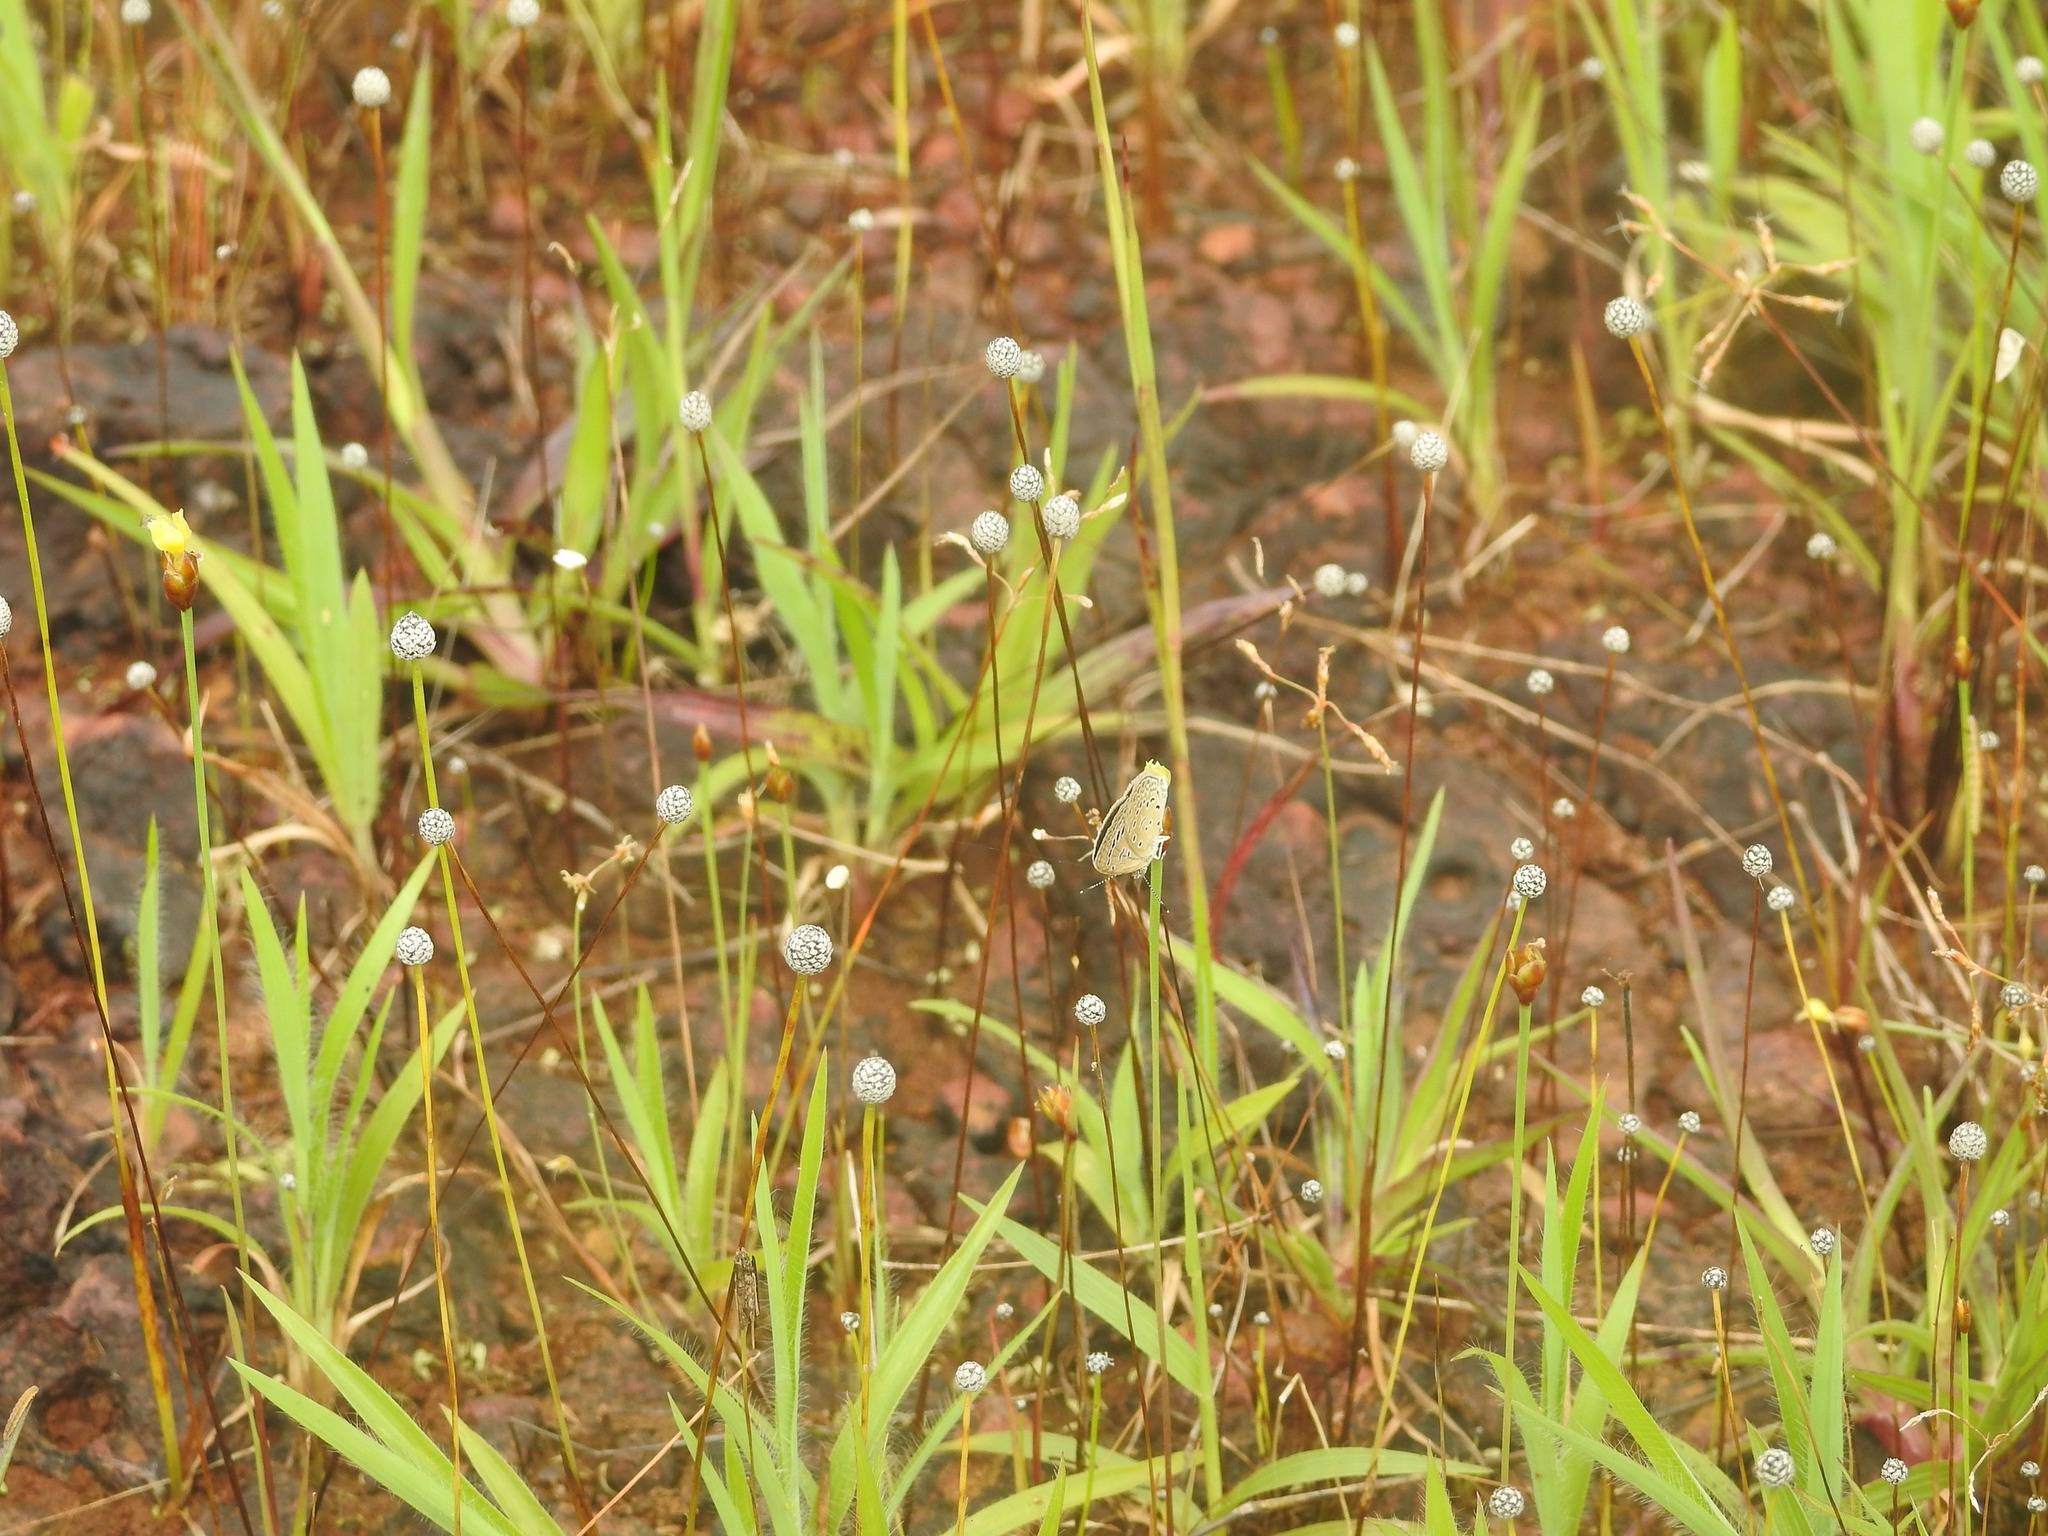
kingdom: Animalia
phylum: Arthropoda
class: Insecta
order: Lepidoptera
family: Lycaenidae
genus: Zizeeria
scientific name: Zizeeria karsandra
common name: Dark grass blue
